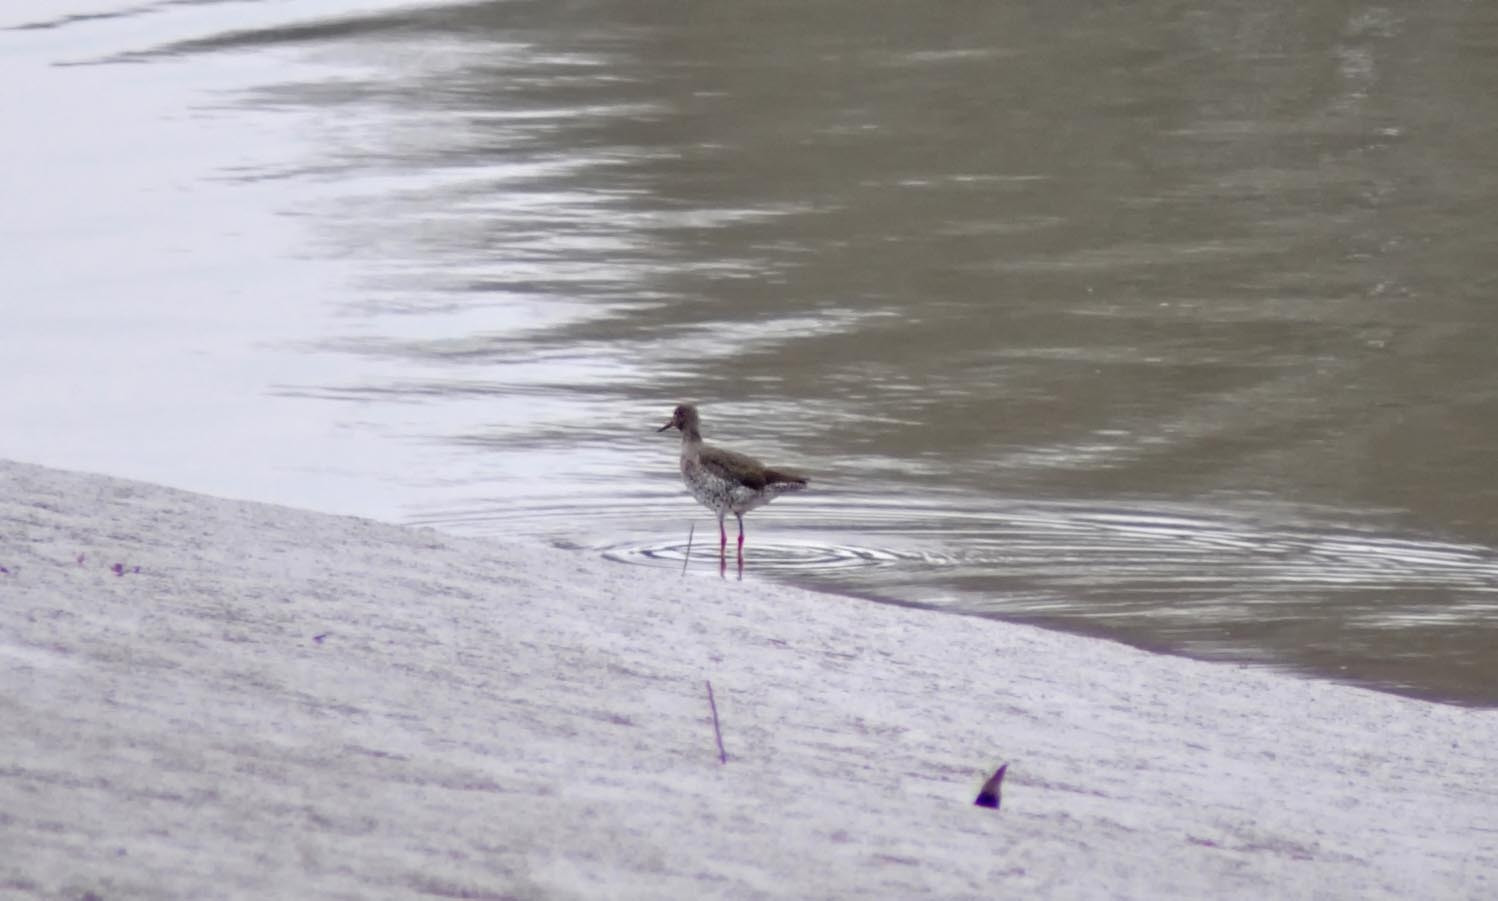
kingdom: Animalia
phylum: Chordata
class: Aves
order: Charadriiformes
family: Scolopacidae
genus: Tringa
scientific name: Tringa totanus
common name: Common redshank
